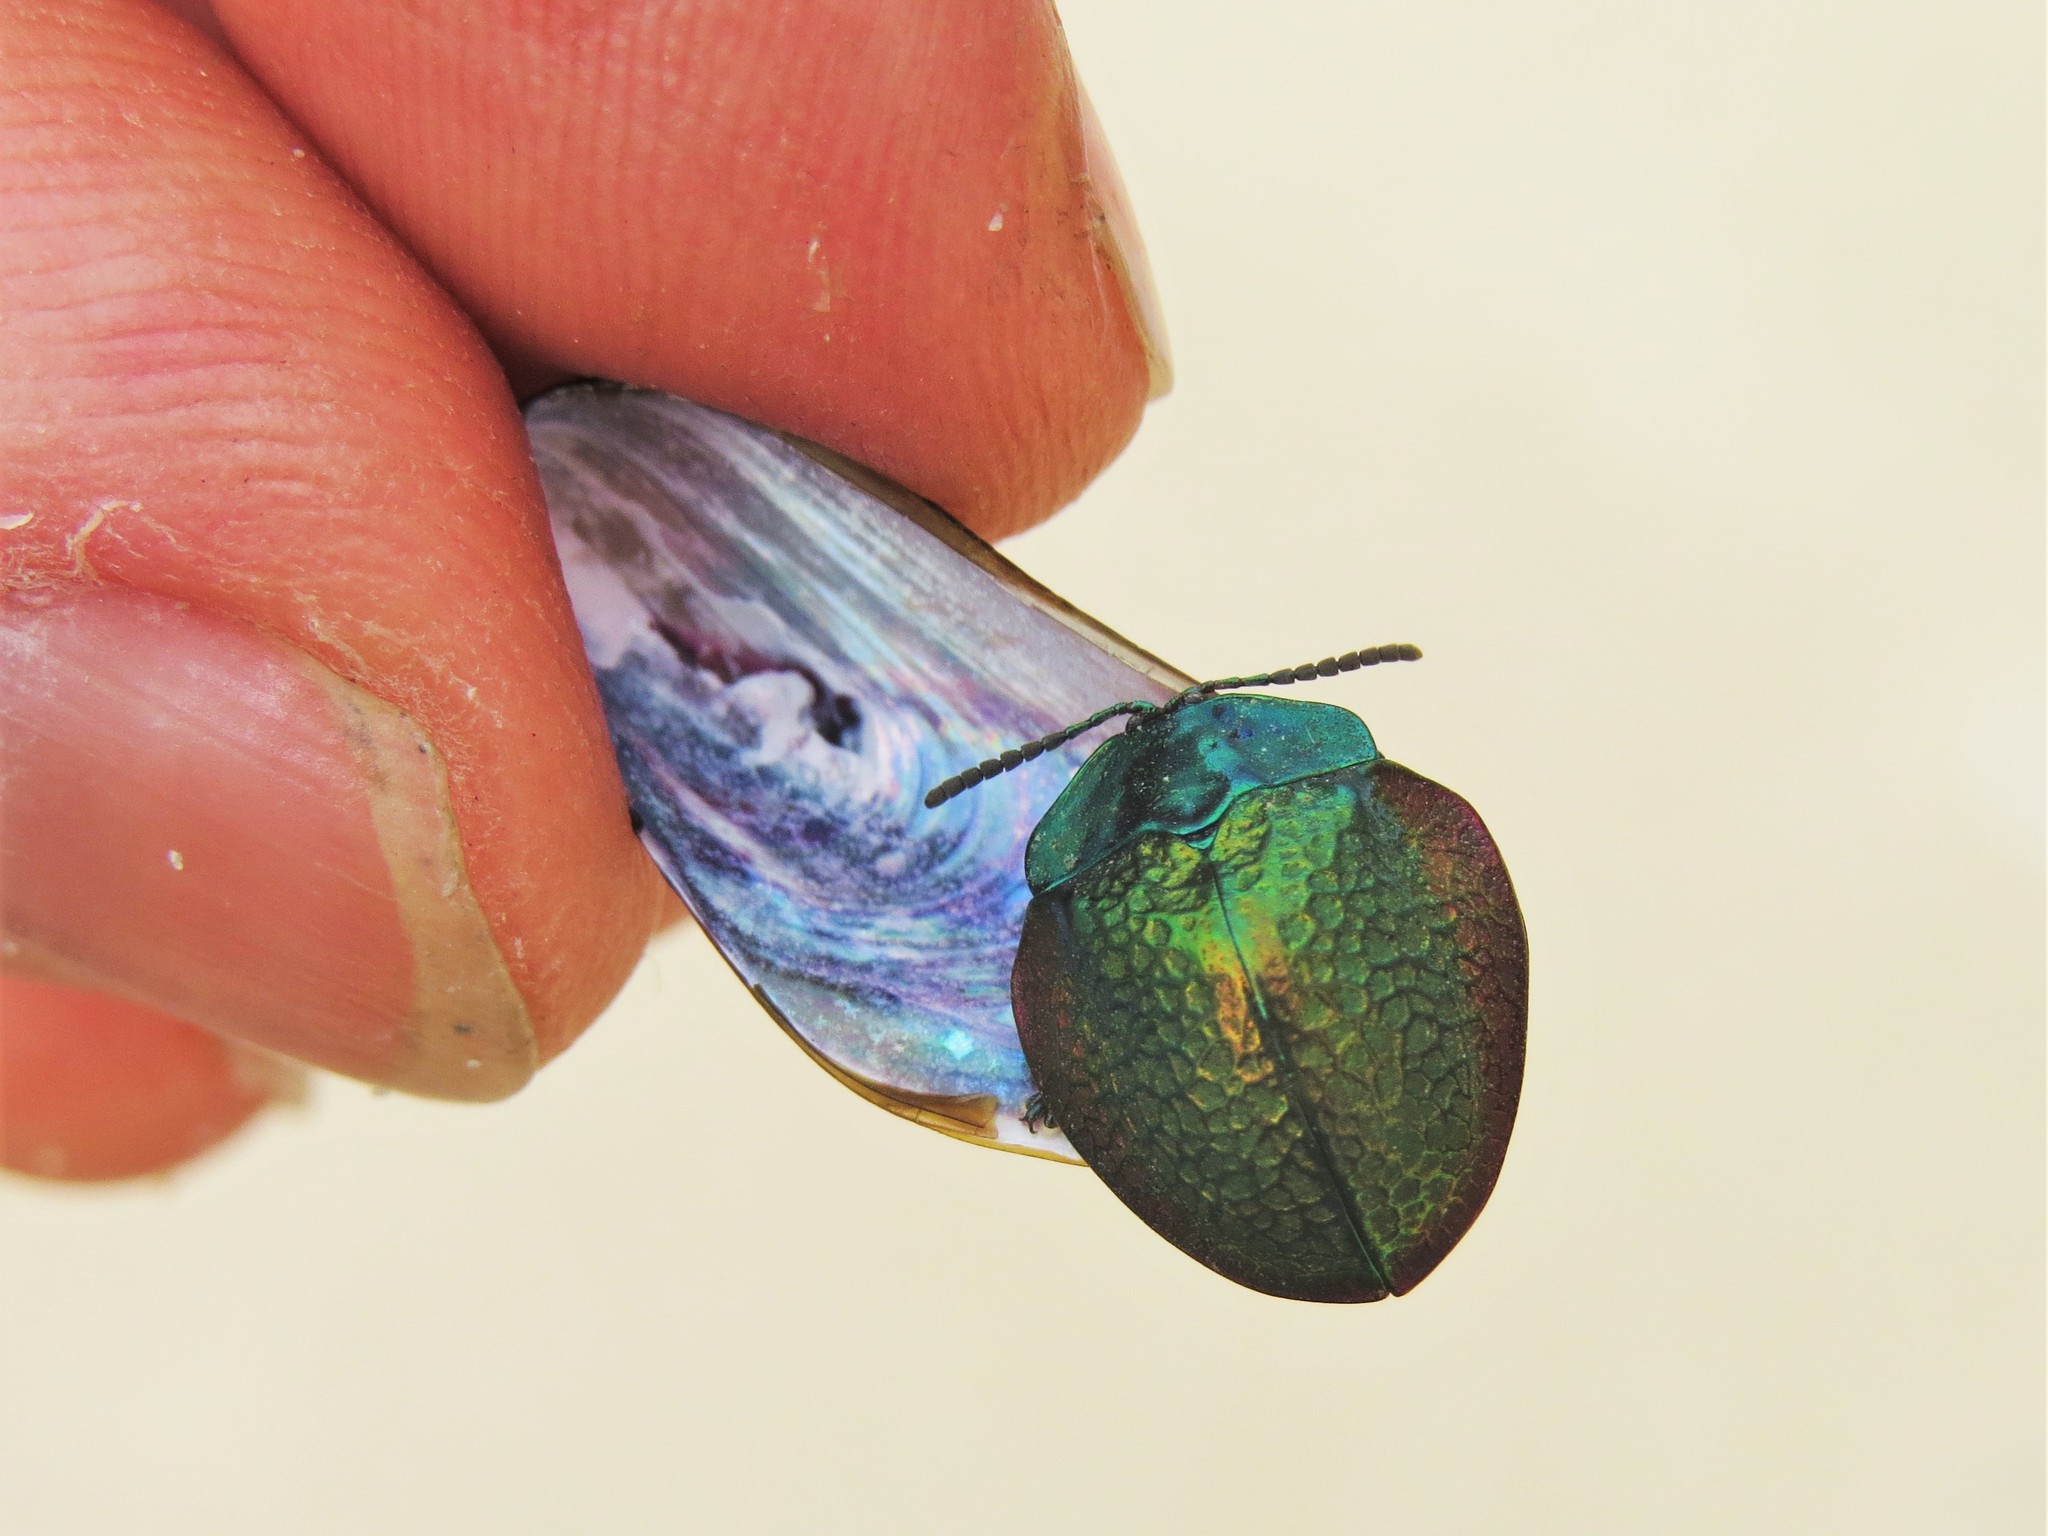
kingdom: Animalia
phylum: Arthropoda
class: Insecta
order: Coleoptera
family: Chrysomelidae
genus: Stolas
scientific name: Stolas festiva
